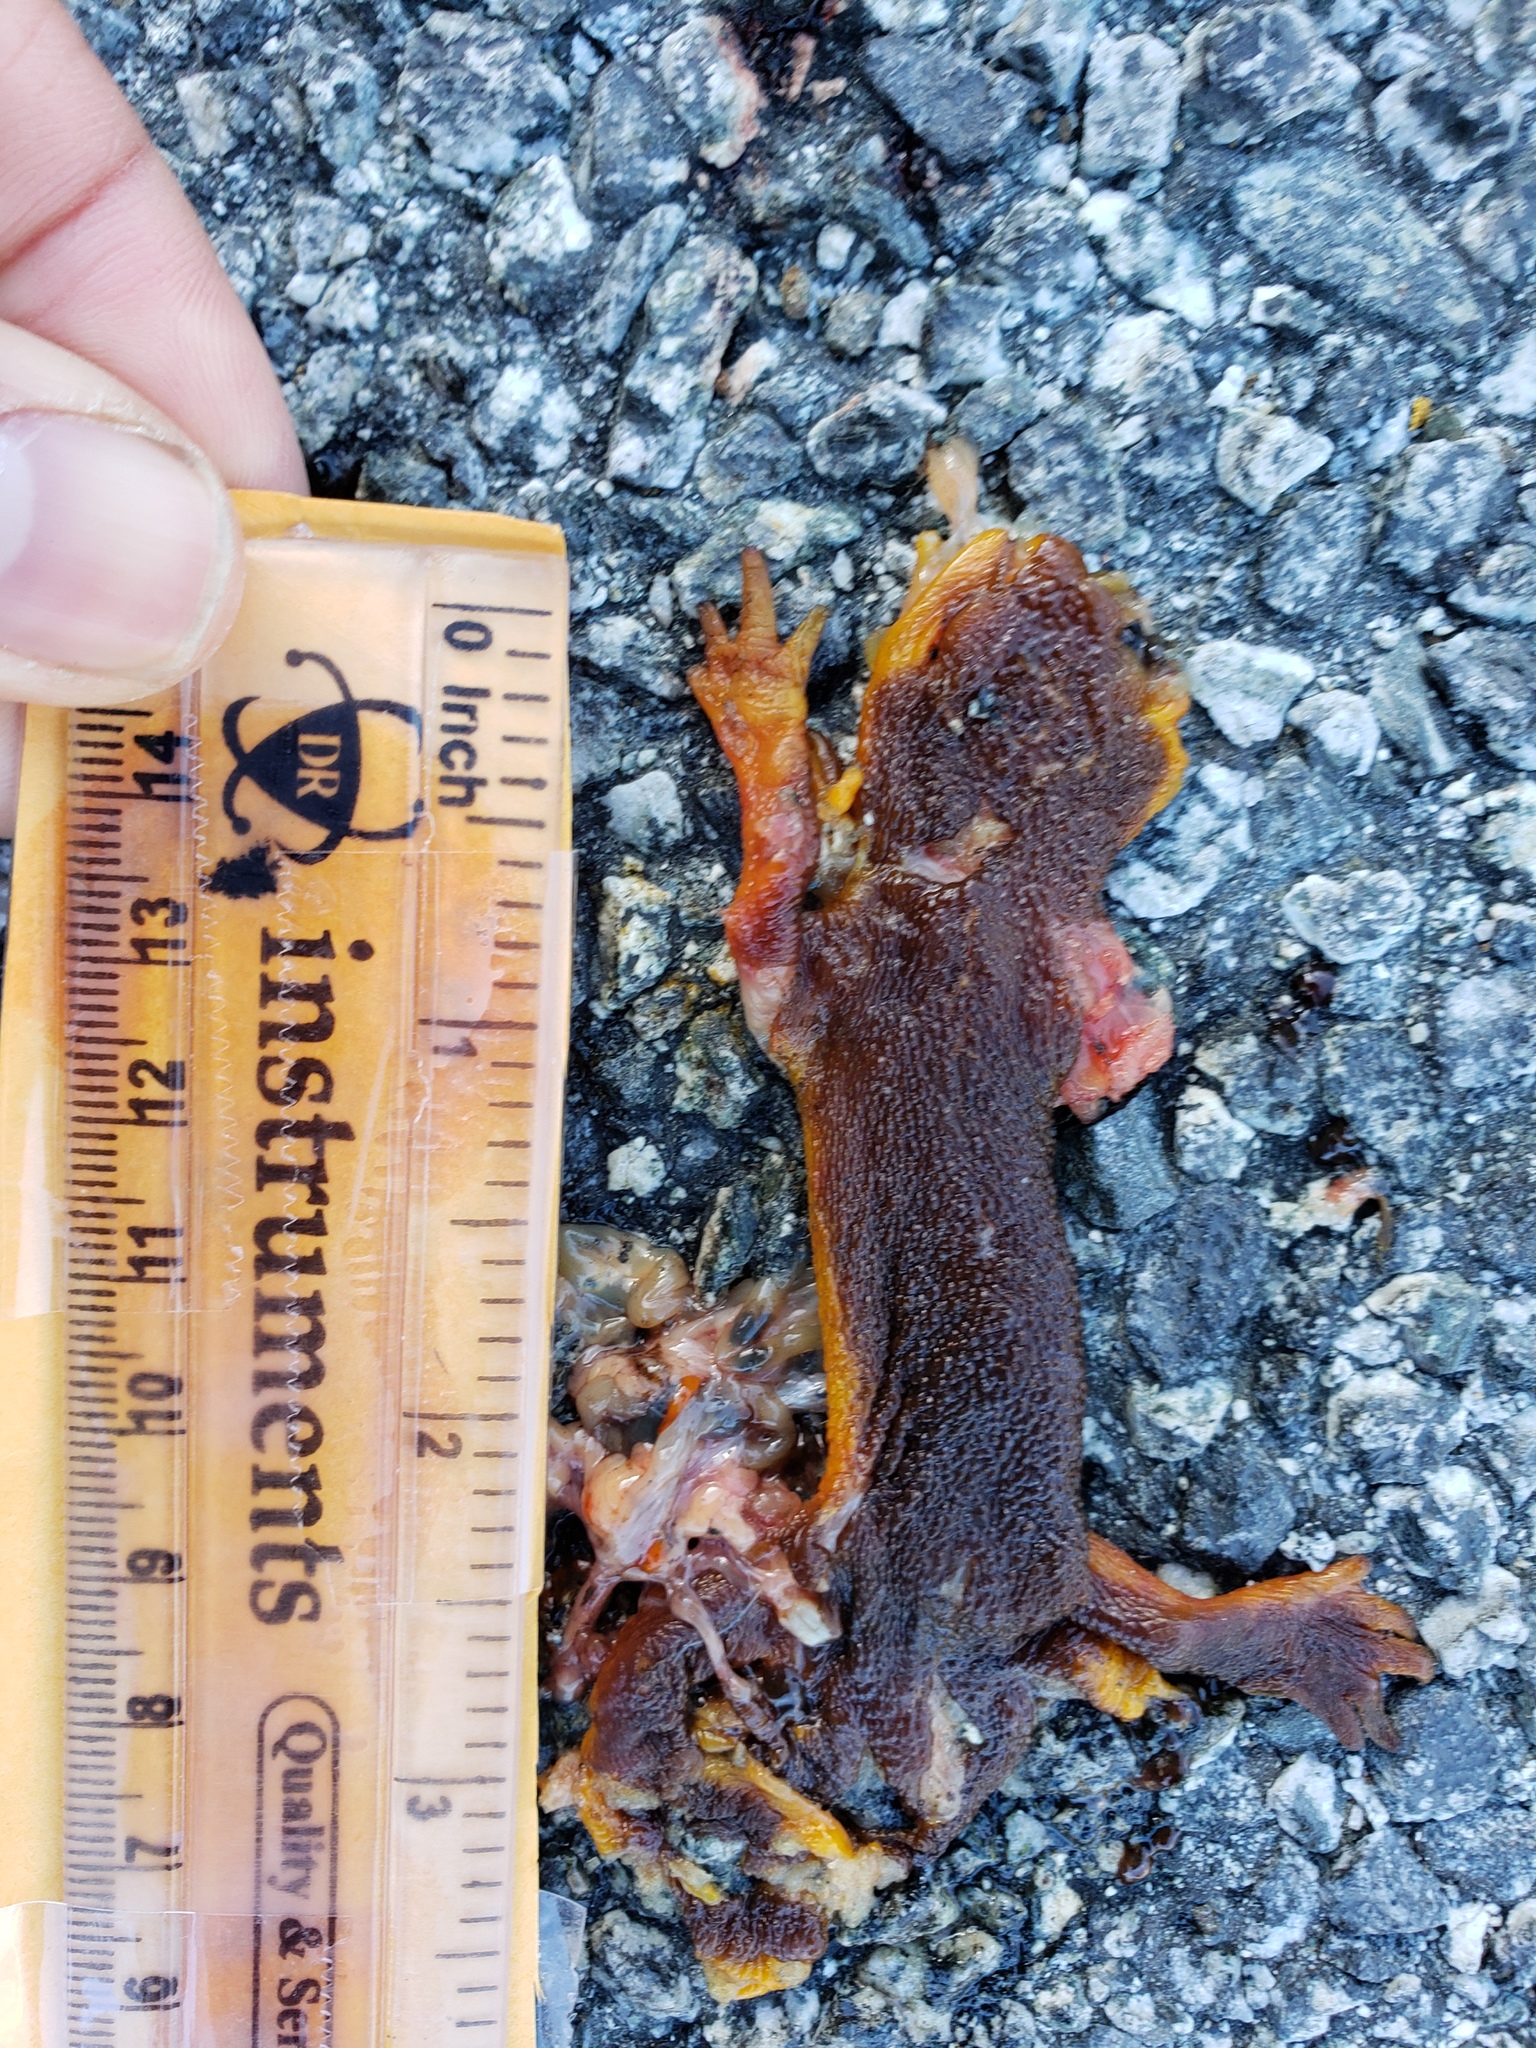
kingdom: Animalia
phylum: Chordata
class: Amphibia
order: Caudata
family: Salamandridae
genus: Taricha
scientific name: Taricha
